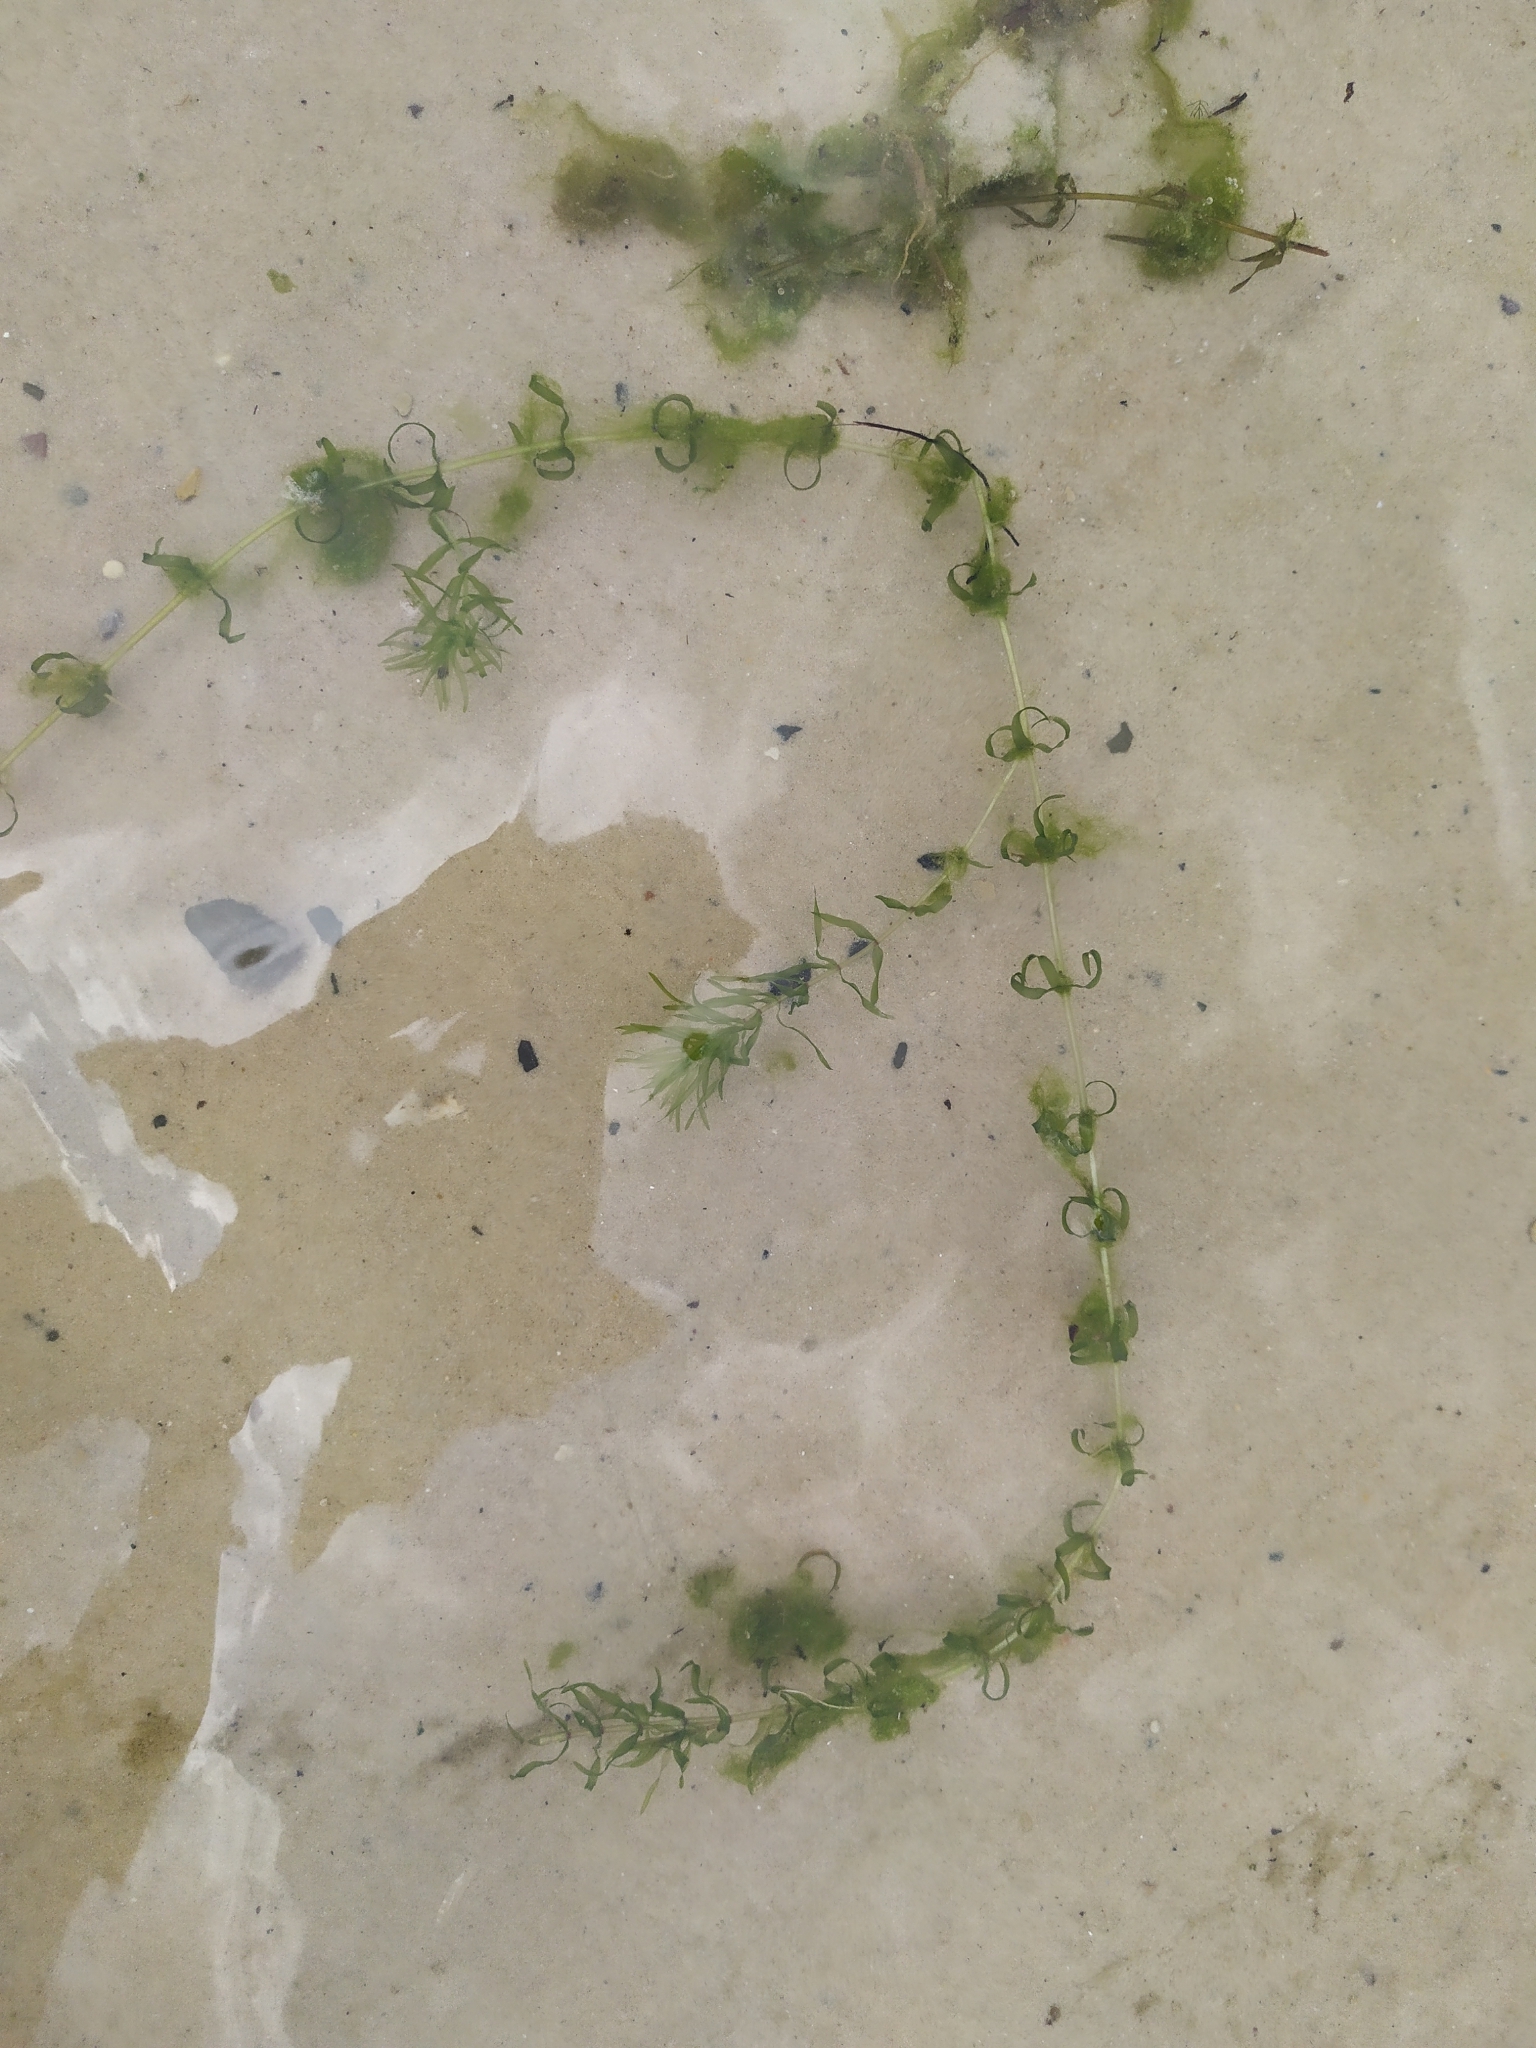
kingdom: Plantae
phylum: Tracheophyta
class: Liliopsida
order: Alismatales
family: Hydrocharitaceae
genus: Elodea
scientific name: Elodea nuttallii
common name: Nuttall's waterweed
